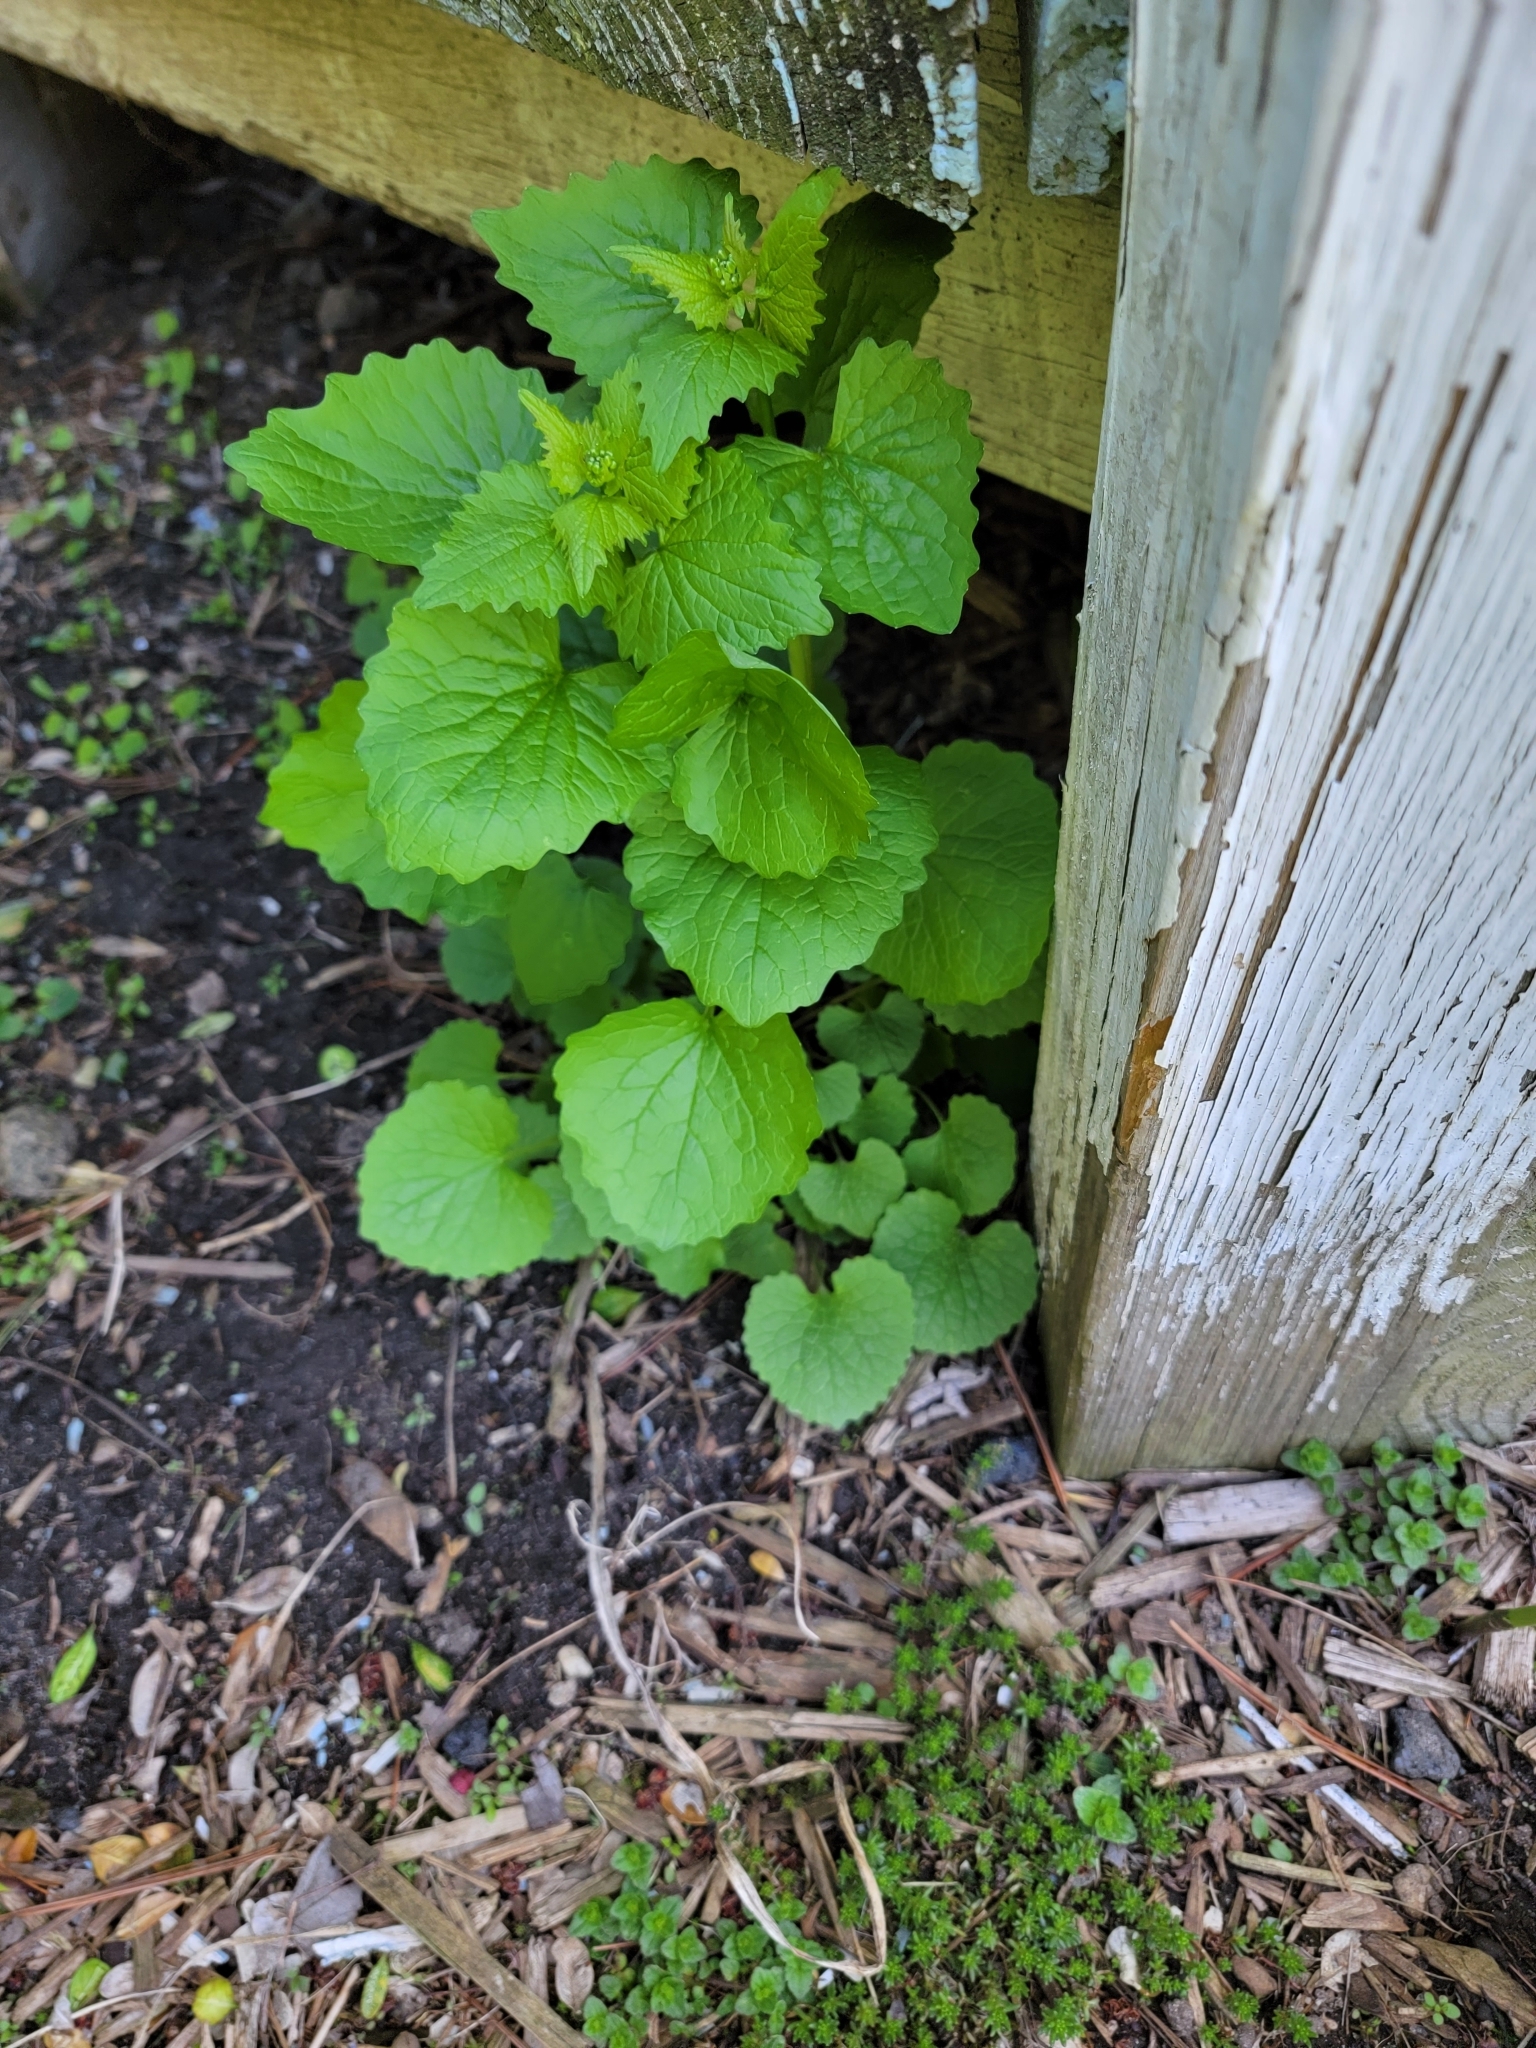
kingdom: Plantae
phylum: Tracheophyta
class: Magnoliopsida
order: Brassicales
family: Brassicaceae
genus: Alliaria
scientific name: Alliaria petiolata
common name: Garlic mustard
